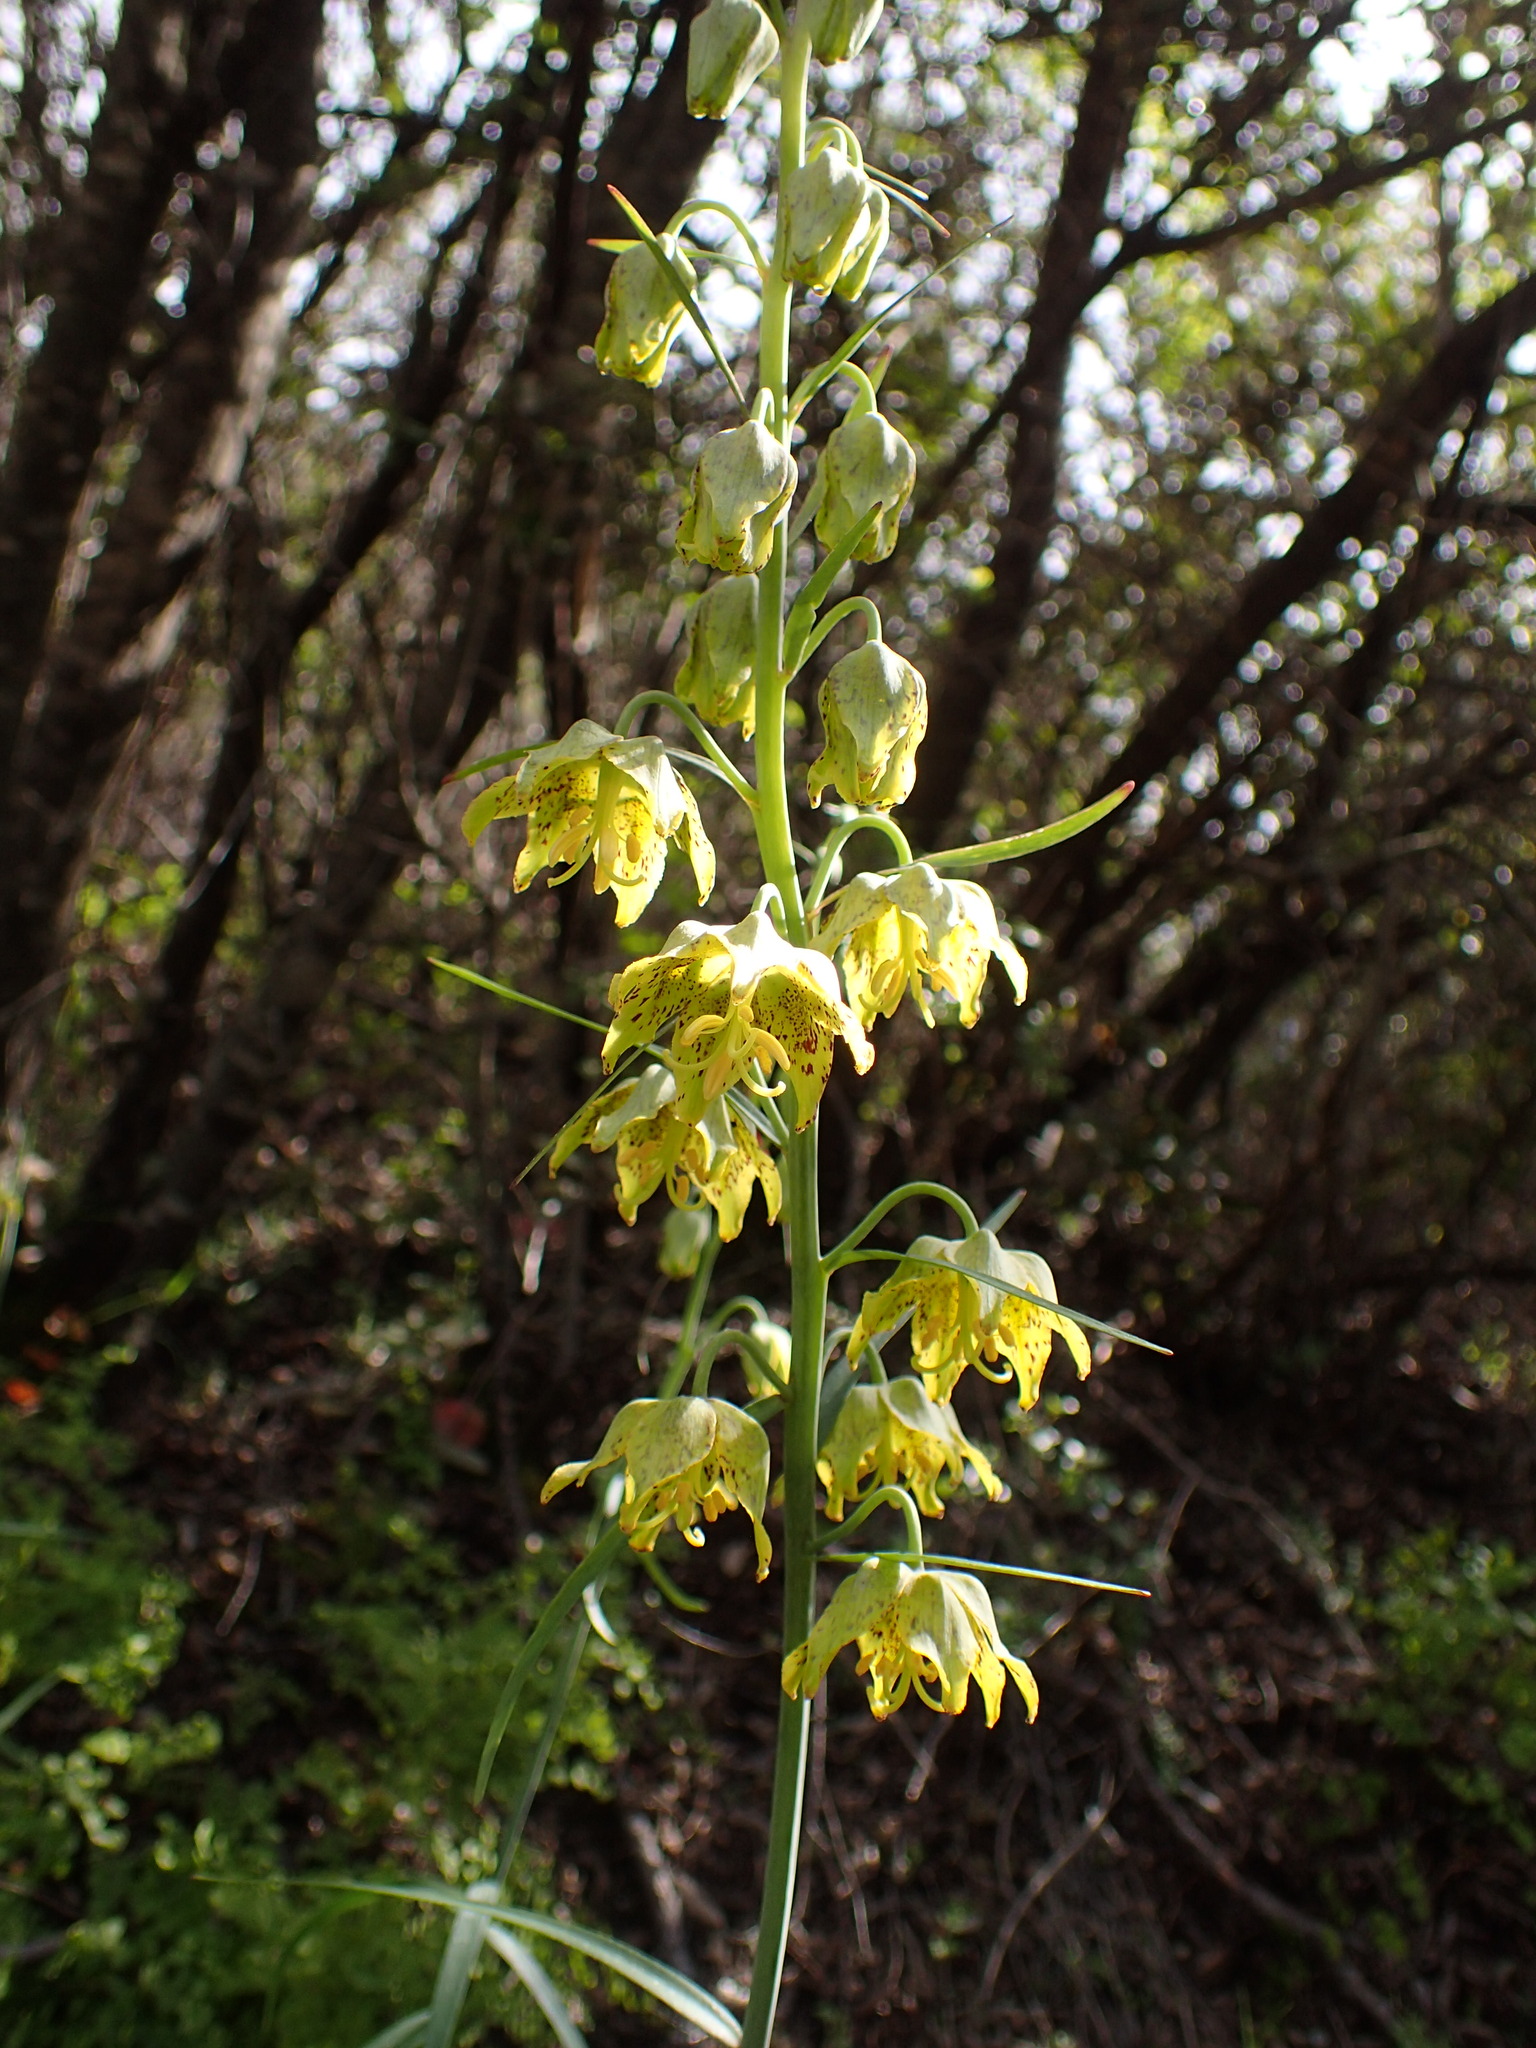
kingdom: Plantae
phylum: Tracheophyta
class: Liliopsida
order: Liliales
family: Liliaceae
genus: Fritillaria
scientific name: Fritillaria ojaiensis
